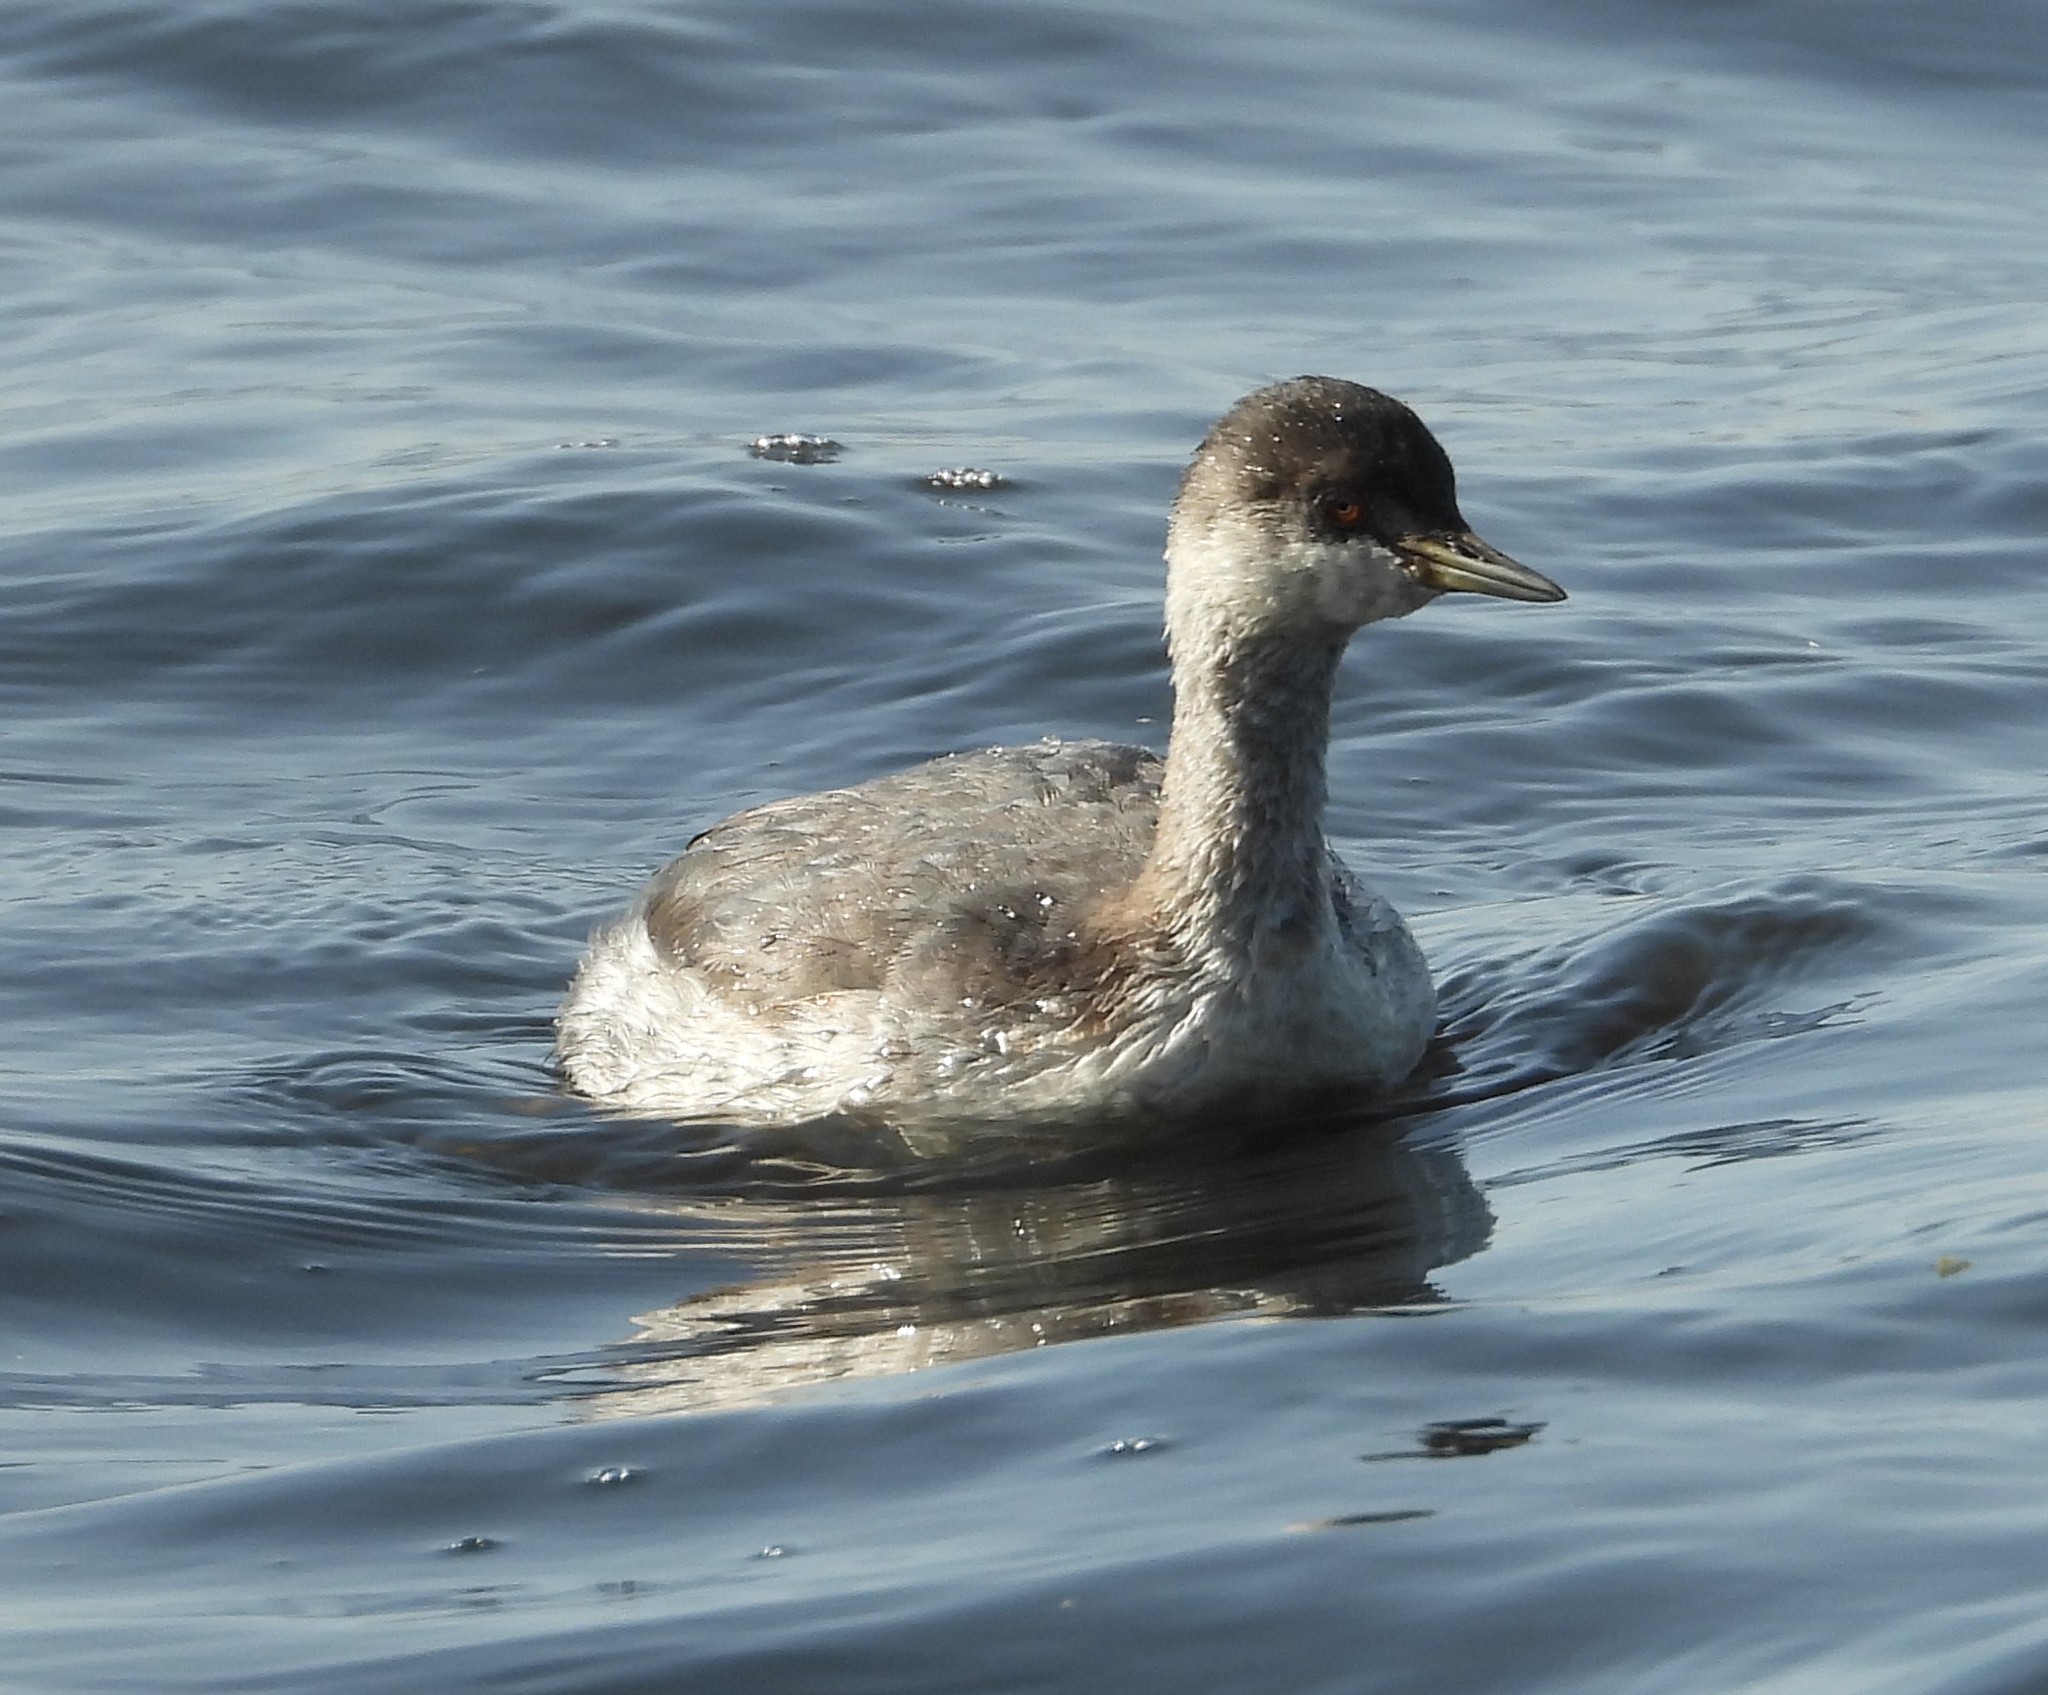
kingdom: Animalia
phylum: Chordata
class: Aves
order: Podicipediformes
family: Podicipedidae
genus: Podiceps
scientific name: Podiceps auritus
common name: Horned grebe
